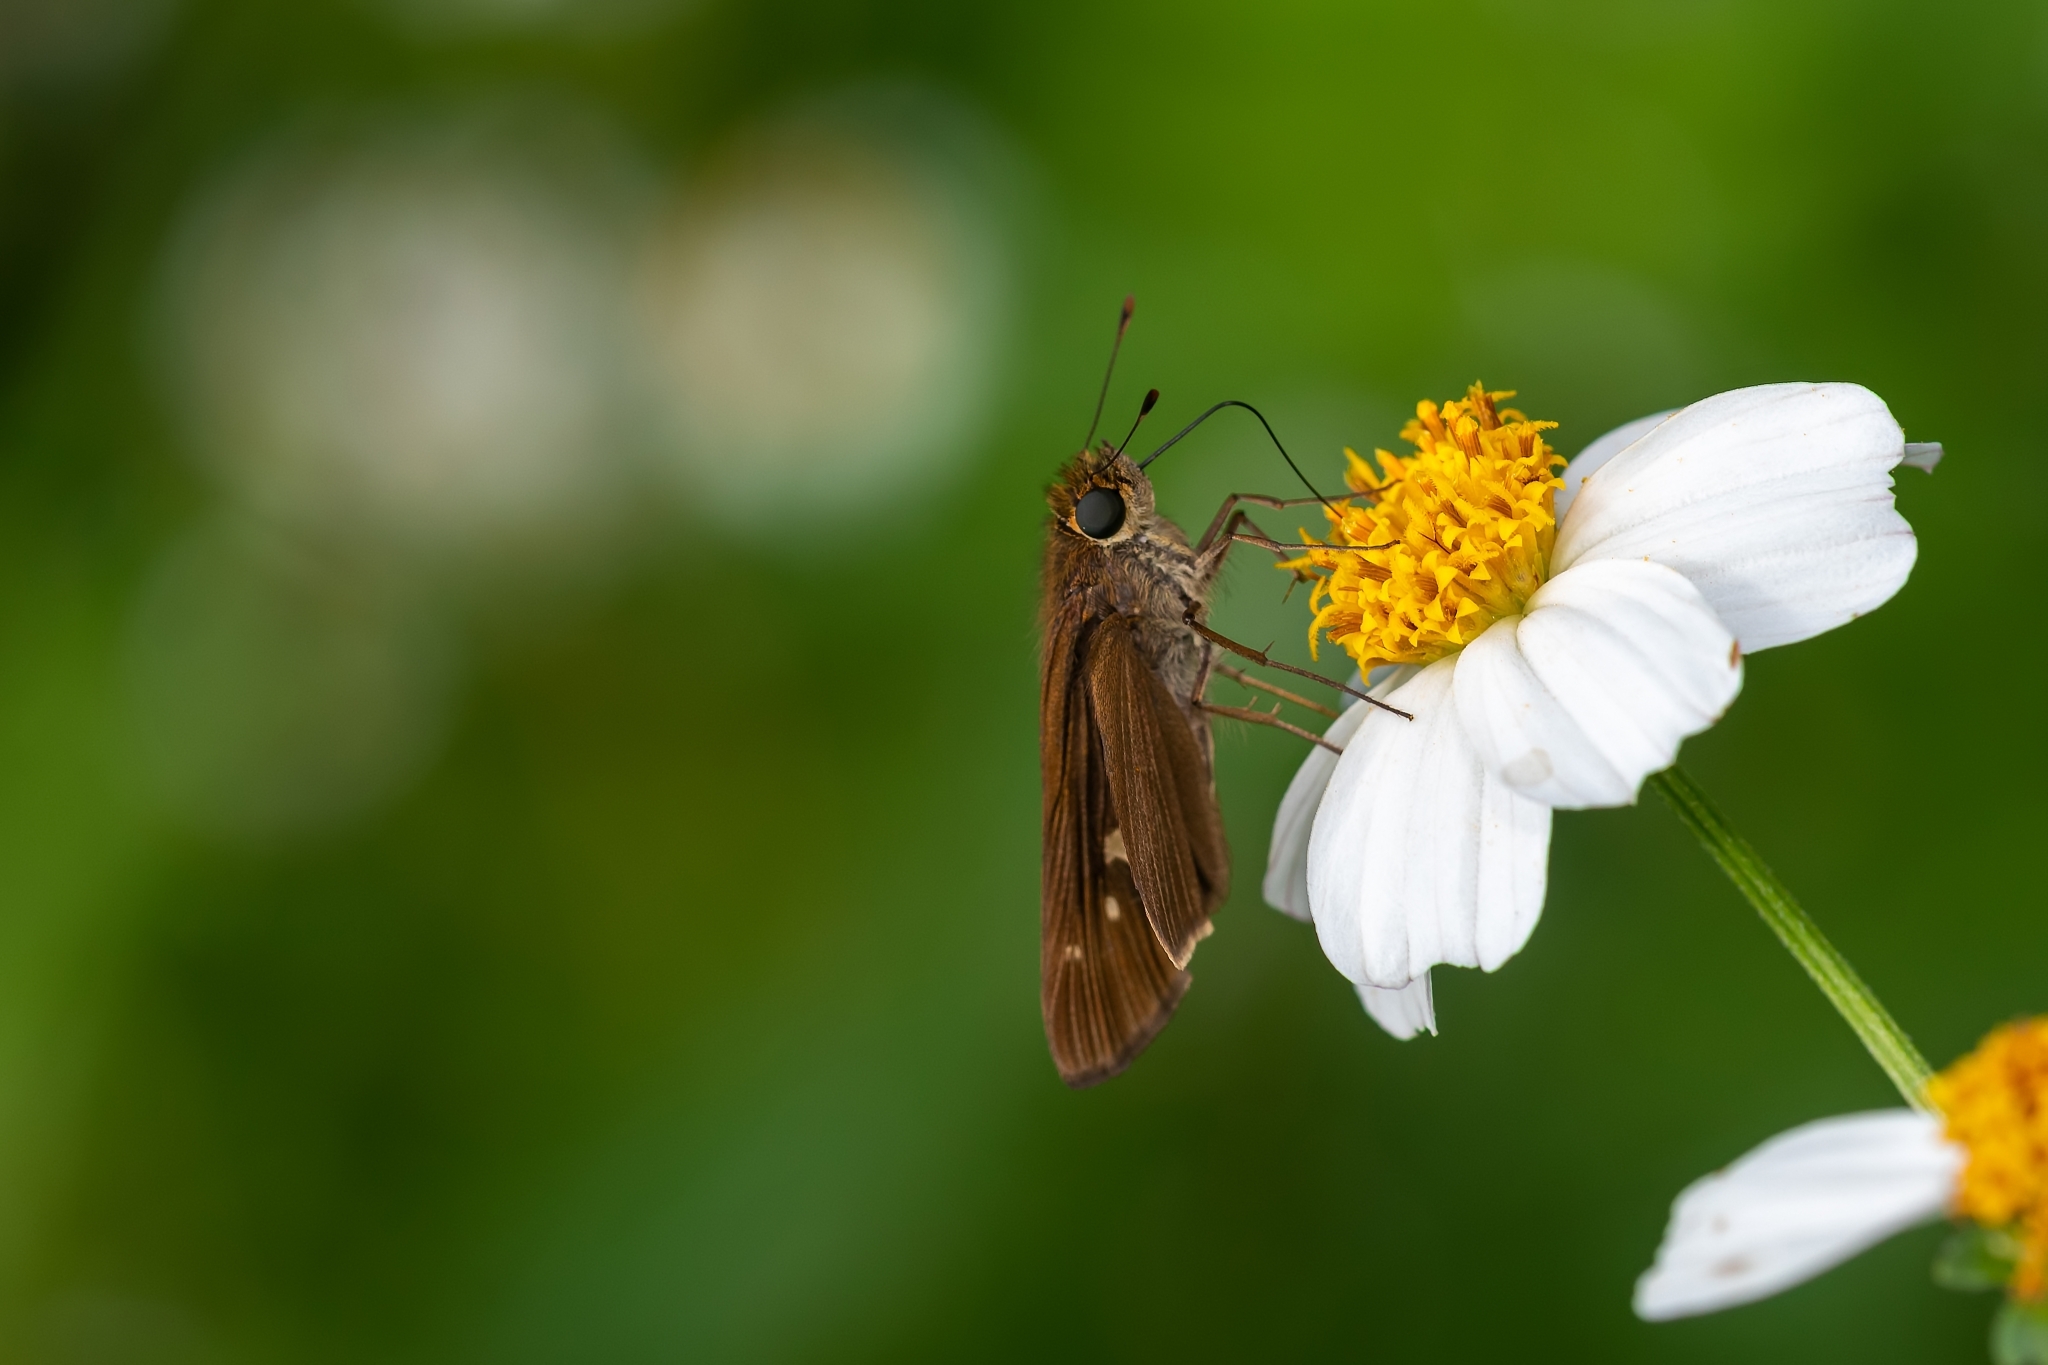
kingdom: Animalia
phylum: Arthropoda
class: Insecta
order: Lepidoptera
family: Hesperiidae
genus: Panoquina
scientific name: Panoquina ocola
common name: Ocola skipper
